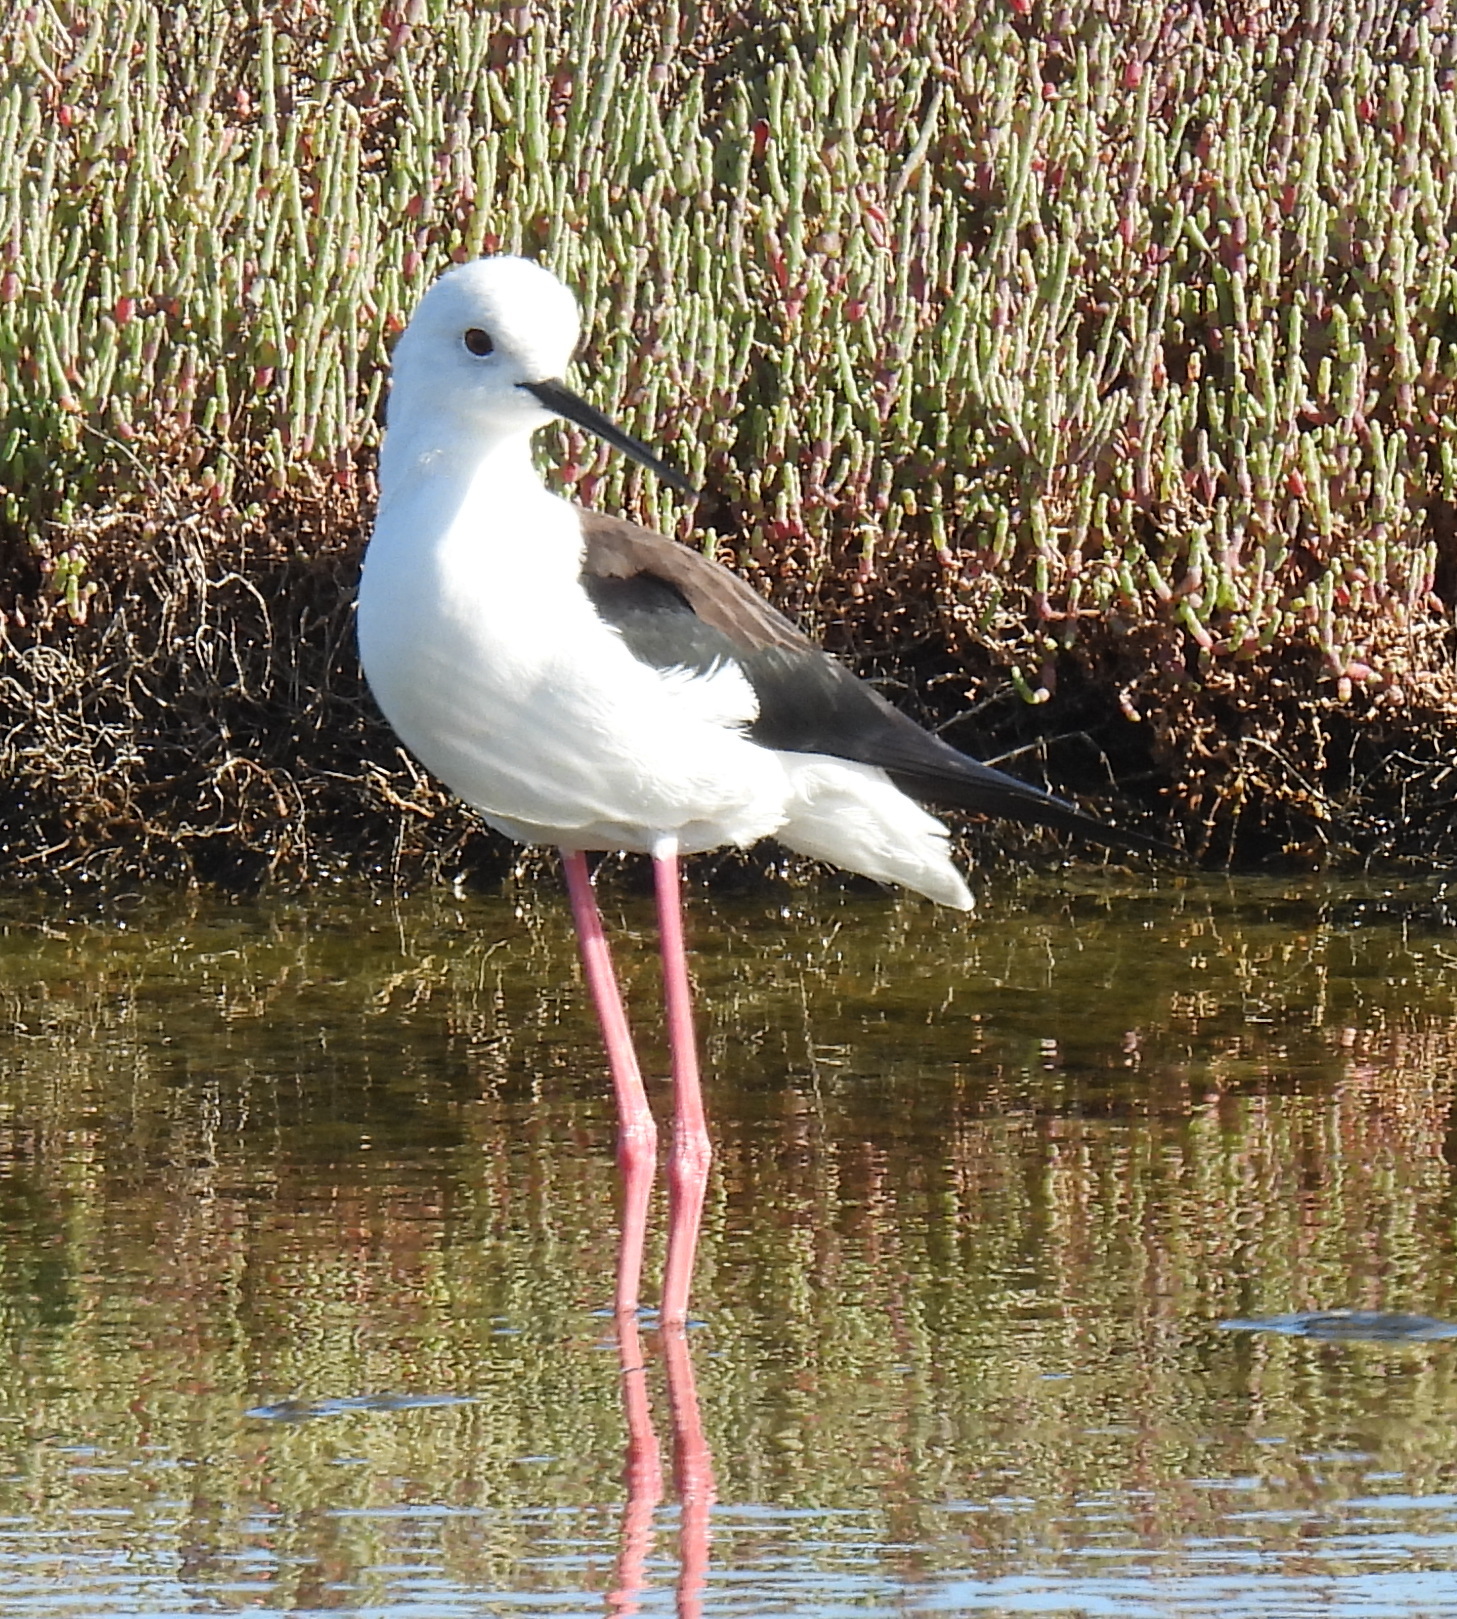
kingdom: Animalia
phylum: Chordata
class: Aves
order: Charadriiformes
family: Recurvirostridae
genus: Himantopus
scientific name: Himantopus himantopus
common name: Black-winged stilt
